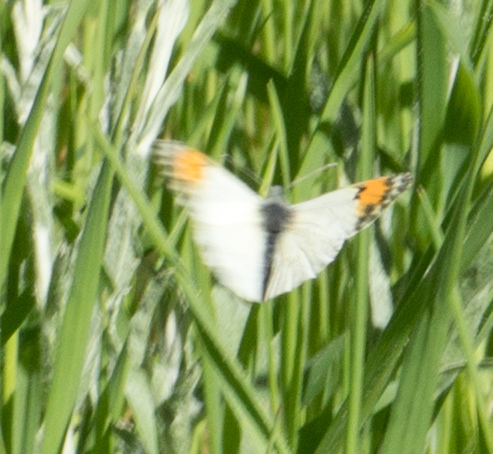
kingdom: Animalia
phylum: Arthropoda
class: Insecta
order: Lepidoptera
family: Pieridae
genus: Anthocharis
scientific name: Anthocharis sara
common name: Sara's orangetip
